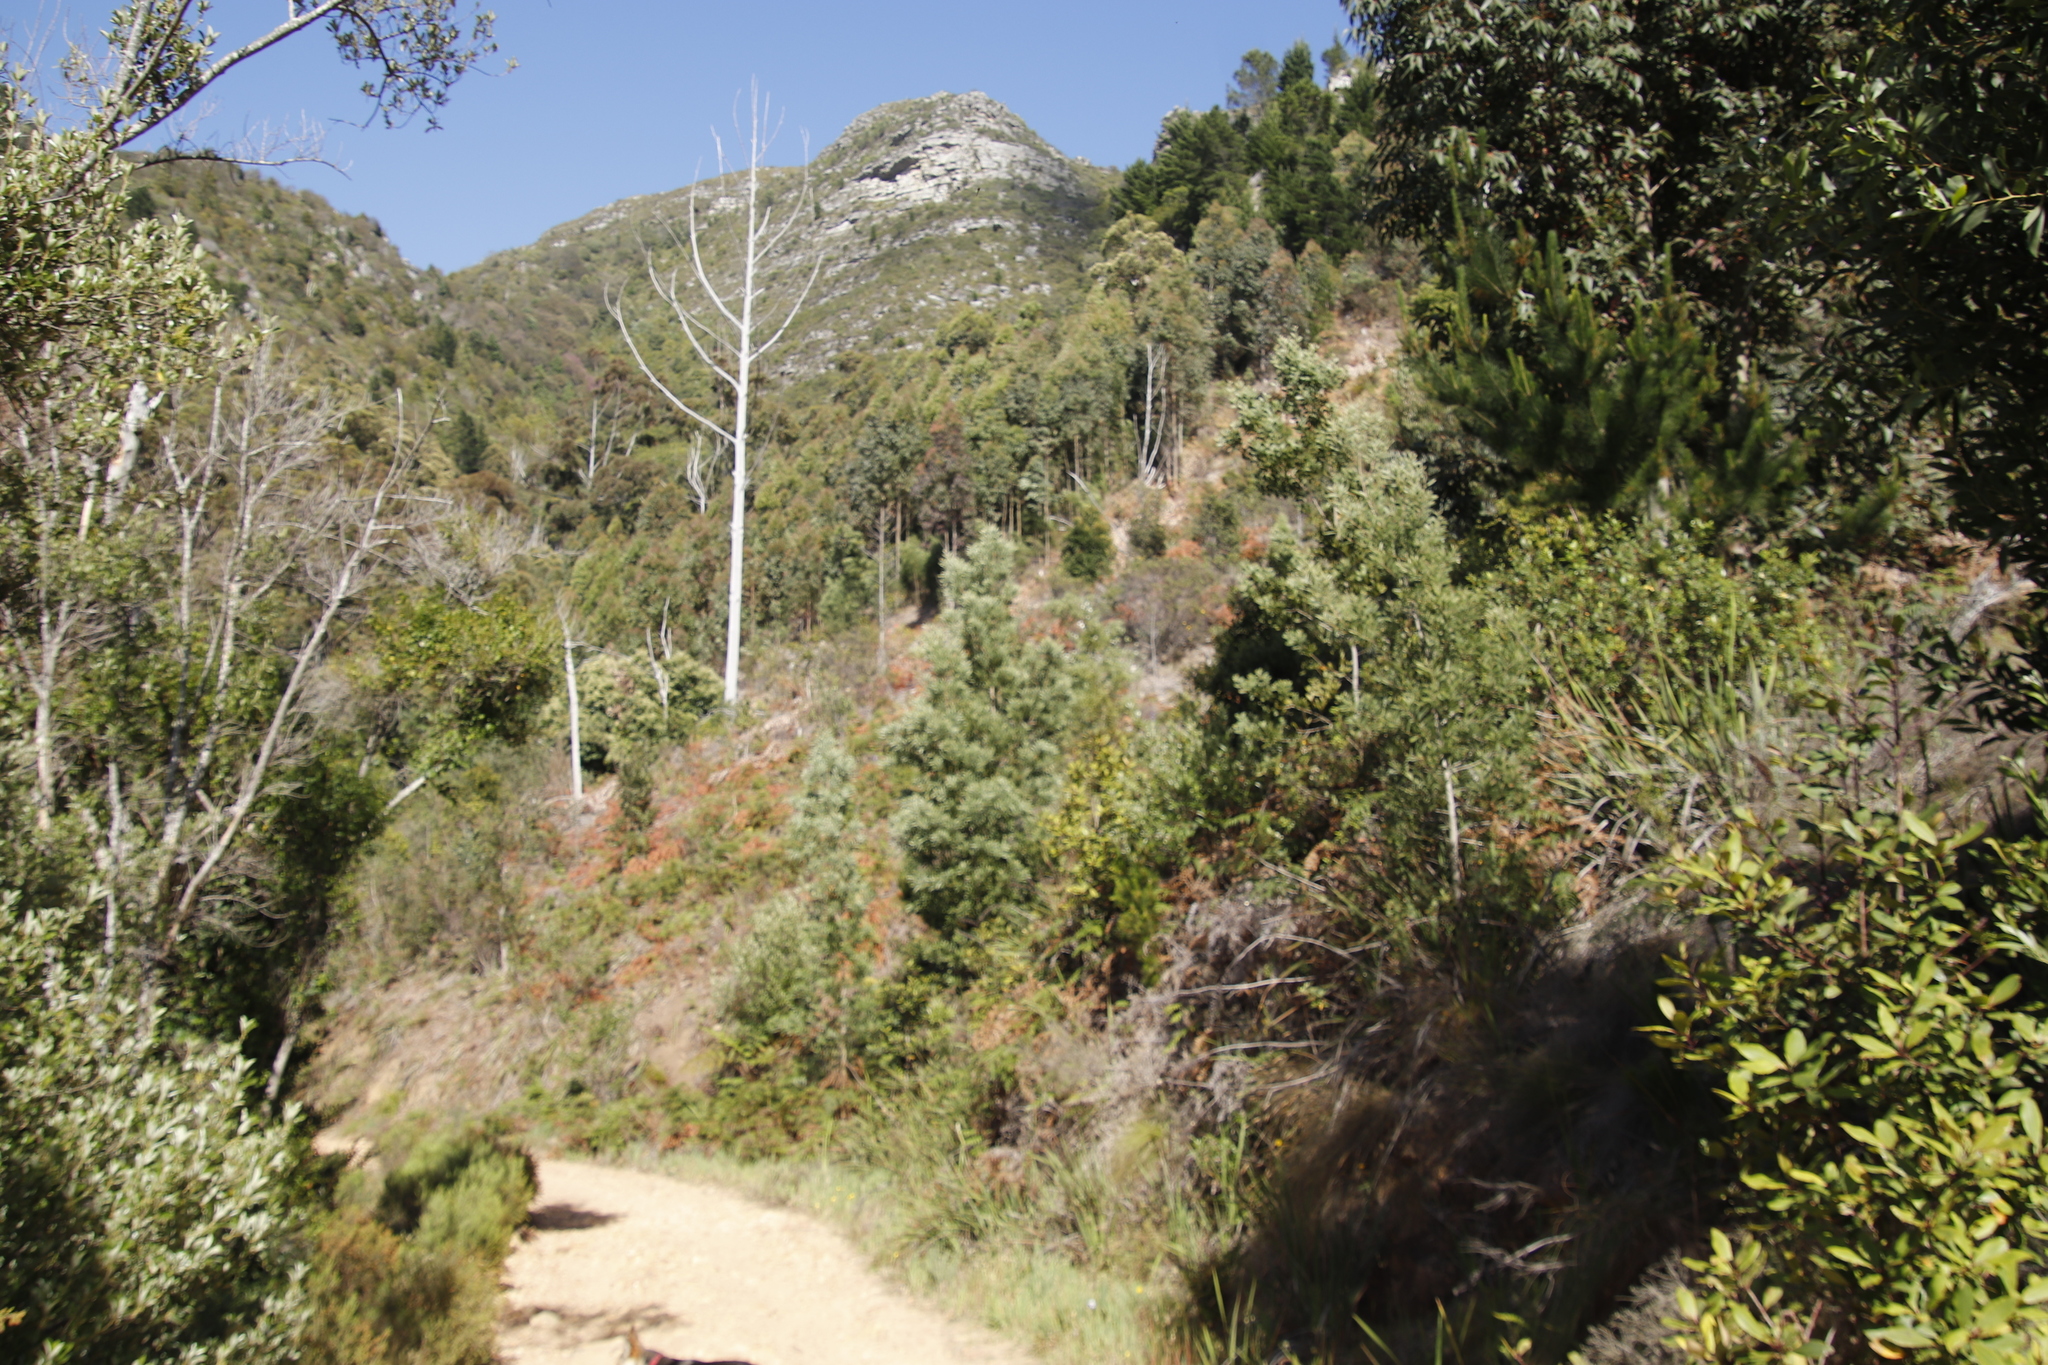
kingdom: Plantae
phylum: Tracheophyta
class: Magnoliopsida
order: Fabales
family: Fabaceae
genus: Acacia
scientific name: Acacia melanoxylon
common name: Blackwood
